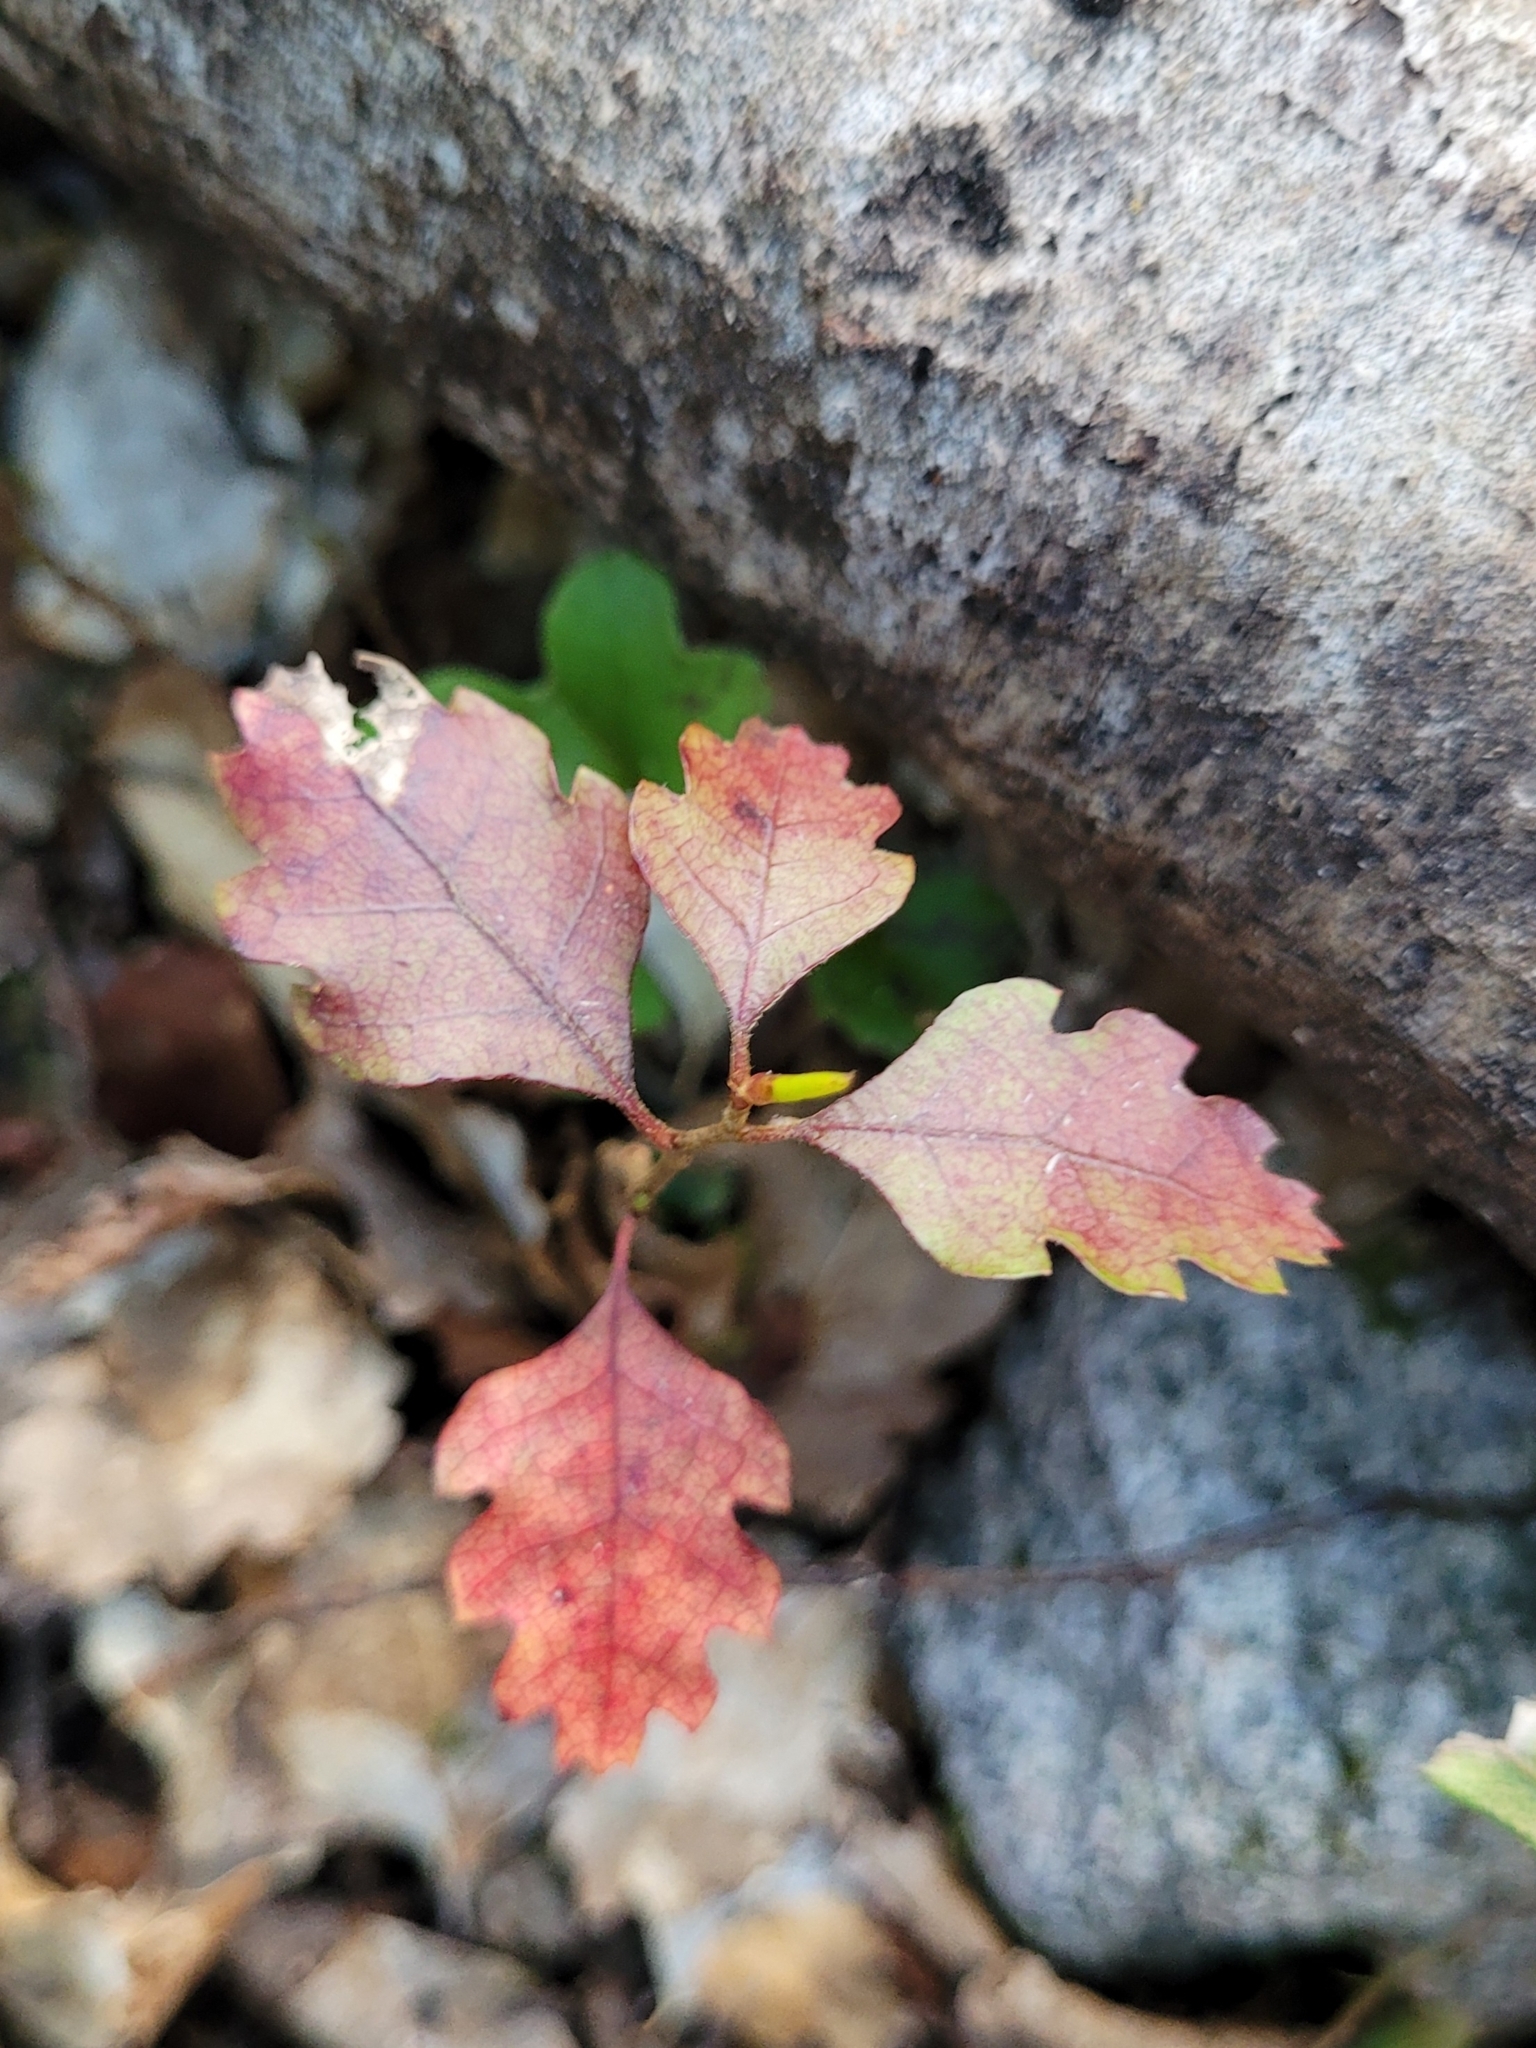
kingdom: Plantae
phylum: Tracheophyta
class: Magnoliopsida
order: Fagales
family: Nothofagaceae
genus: Nothofagus
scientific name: Nothofagus fusca
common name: Red beech
